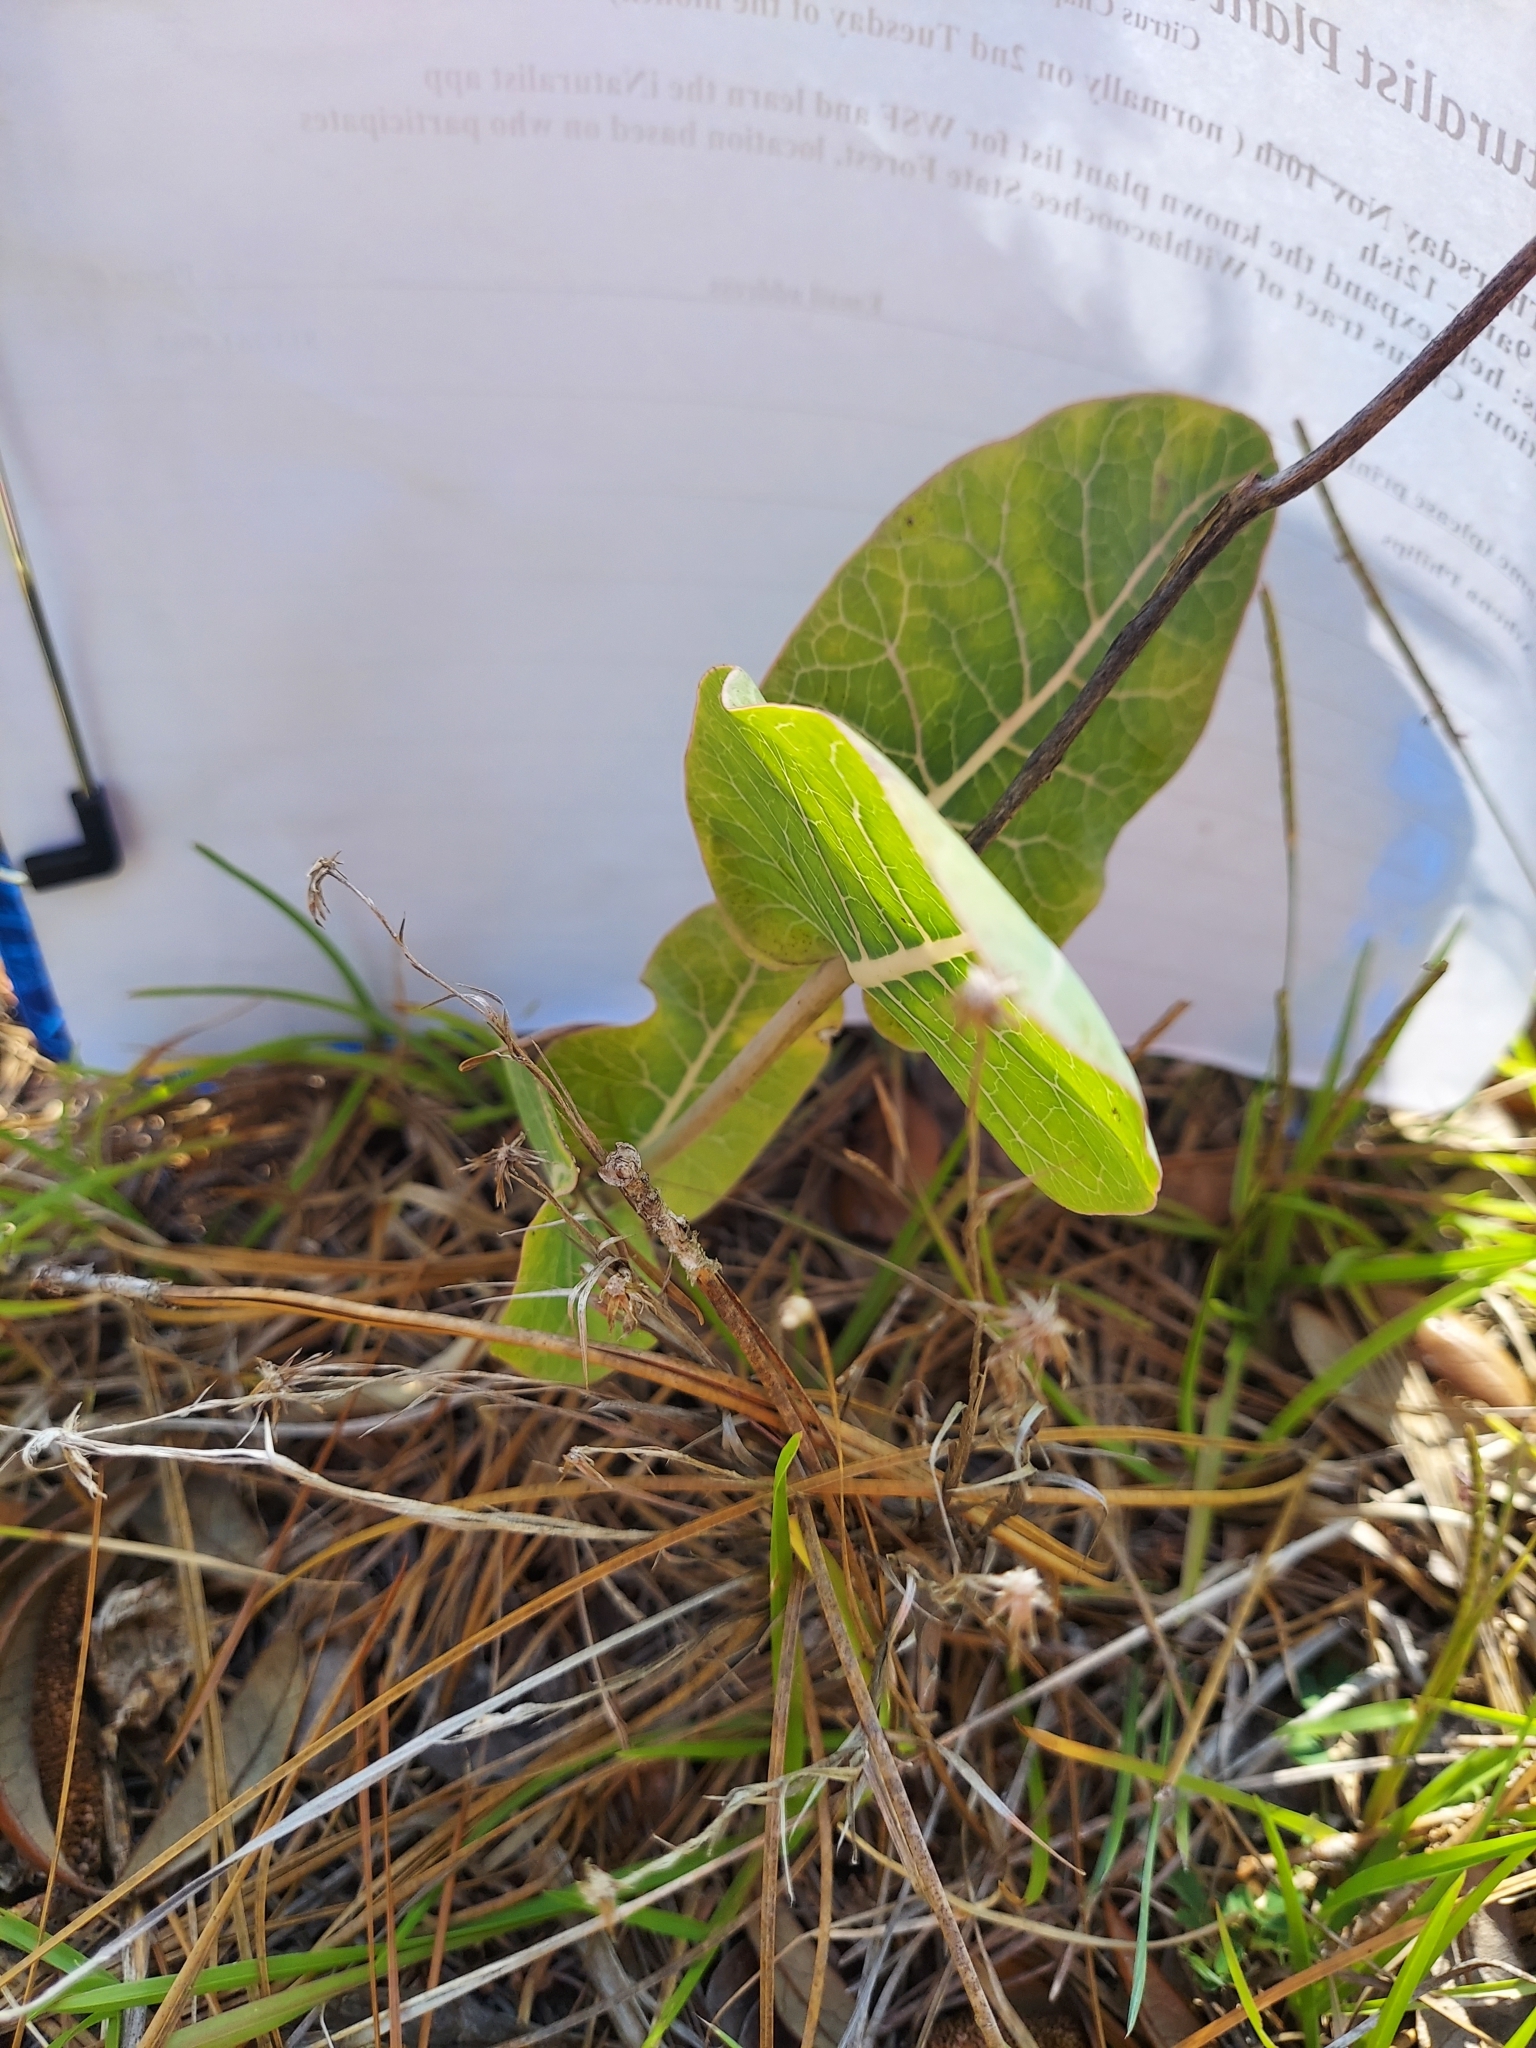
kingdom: Plantae
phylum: Tracheophyta
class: Magnoliopsida
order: Gentianales
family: Apocynaceae
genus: Asclepias
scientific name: Asclepias humistrata
